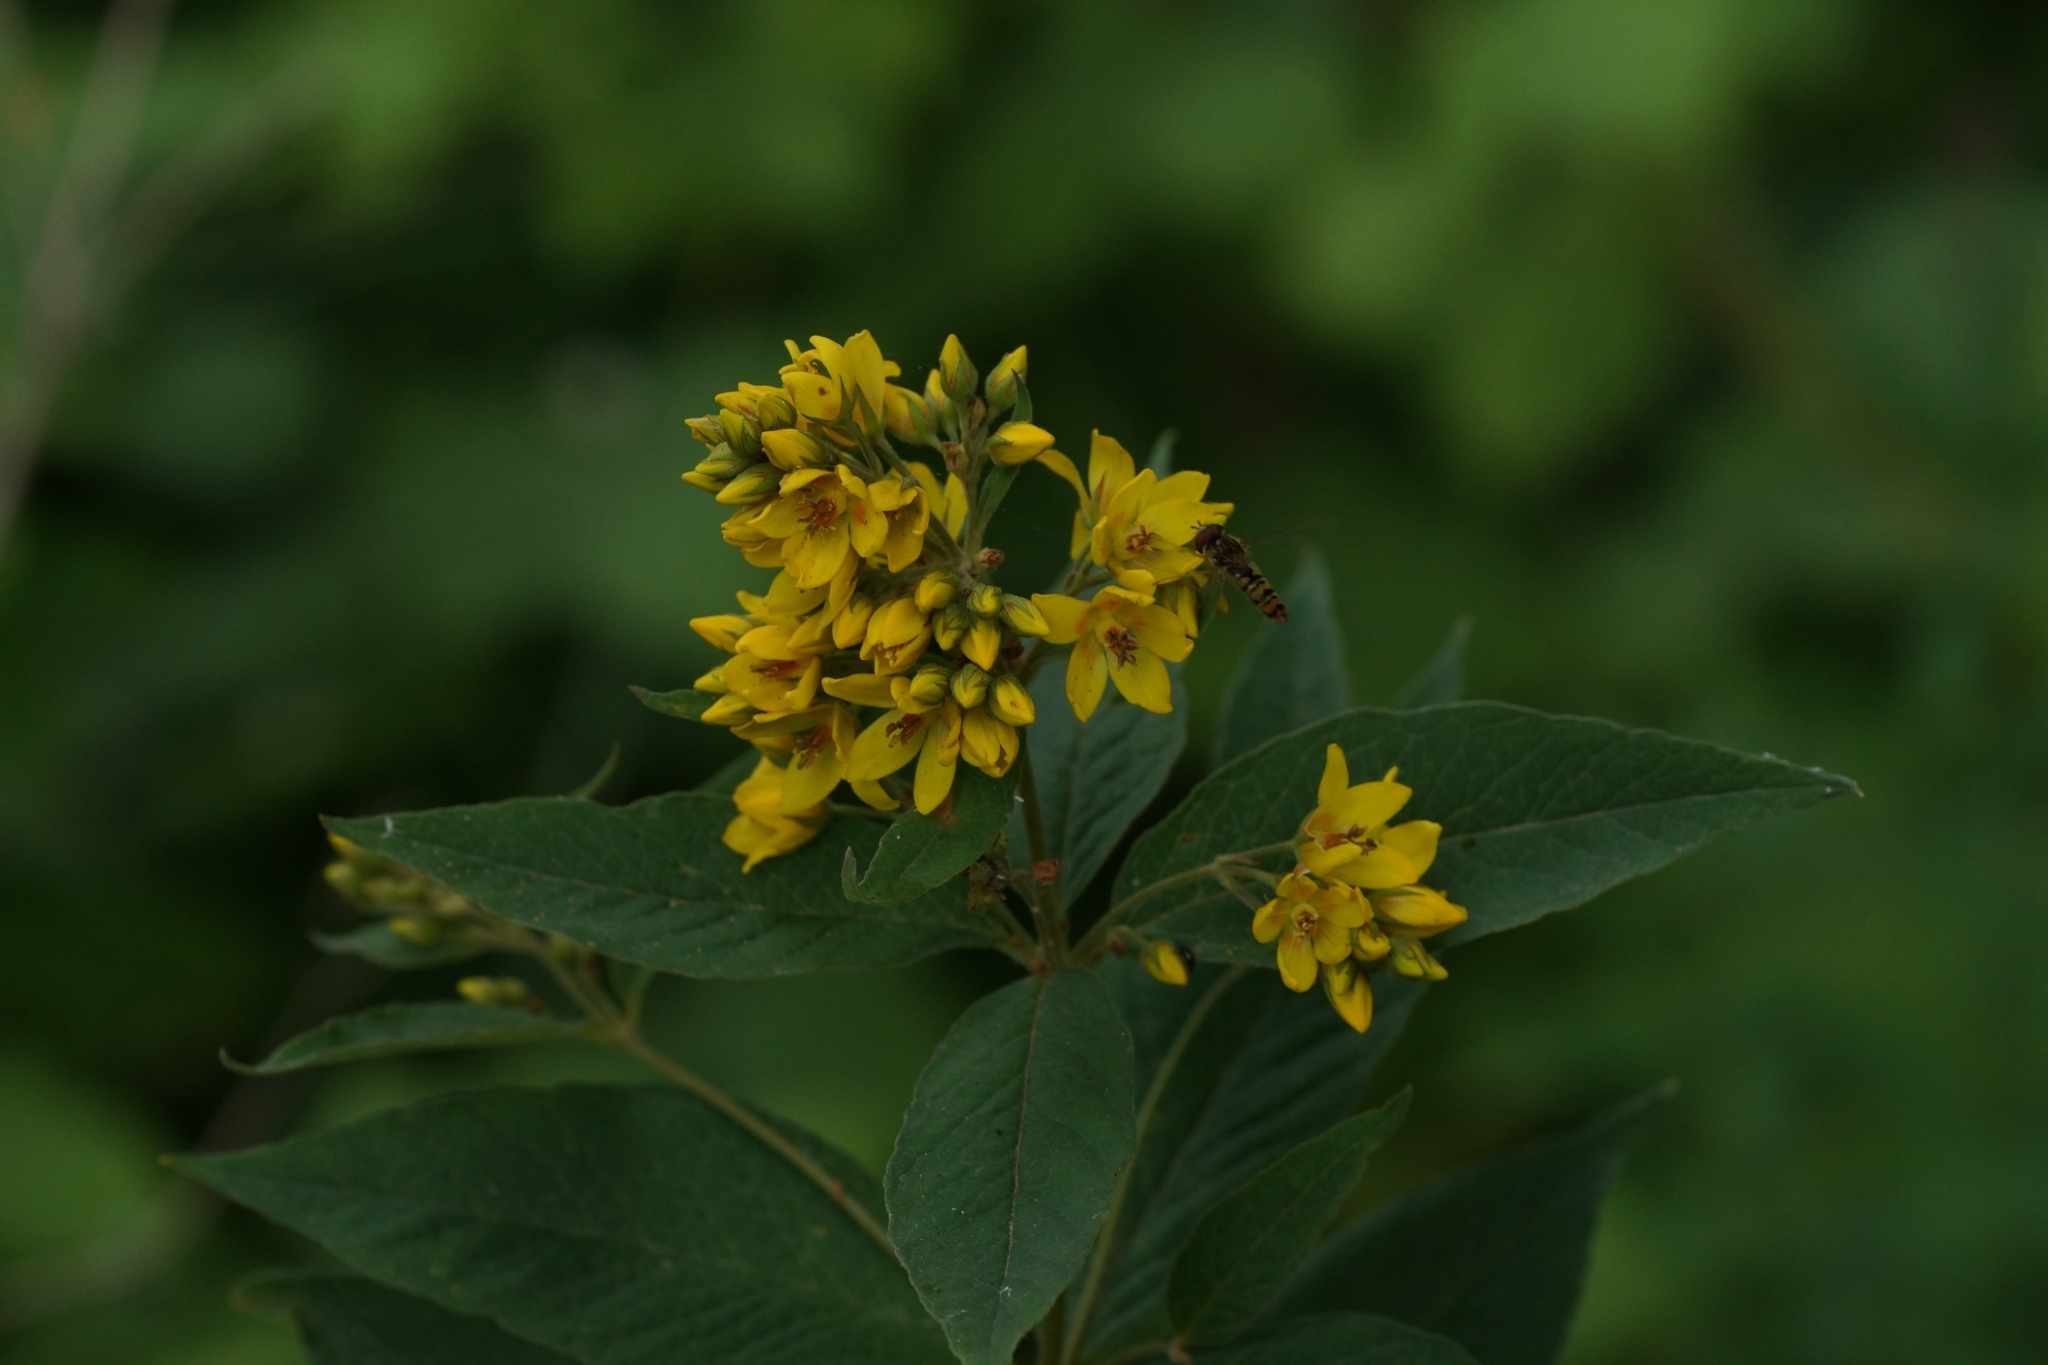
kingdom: Plantae
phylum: Tracheophyta
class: Magnoliopsida
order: Ericales
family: Primulaceae
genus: Lysimachia
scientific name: Lysimachia vulgaris
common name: Yellow loosestrife
